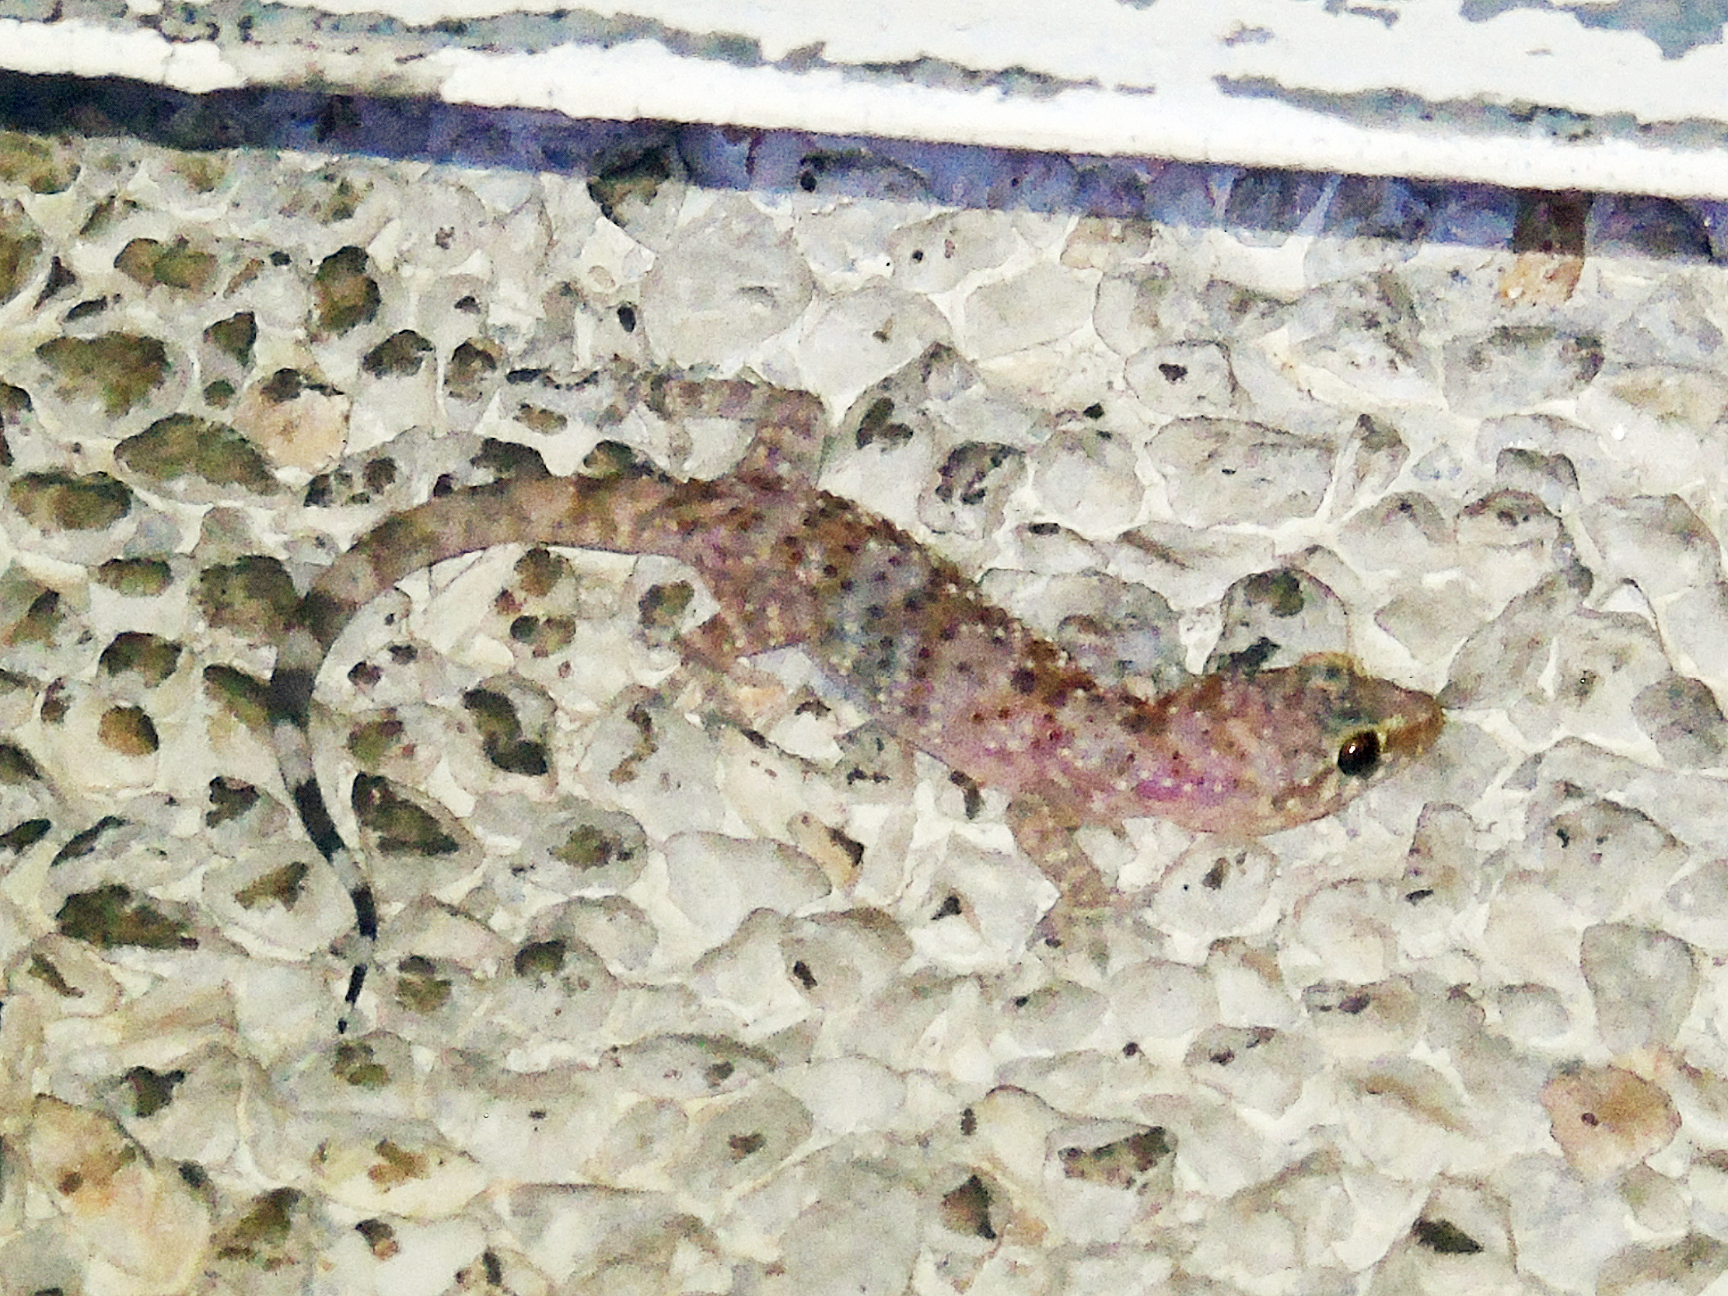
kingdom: Animalia
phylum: Chordata
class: Squamata
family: Gekkonidae
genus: Hemidactylus
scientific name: Hemidactylus turcicus
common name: Turkish gecko
